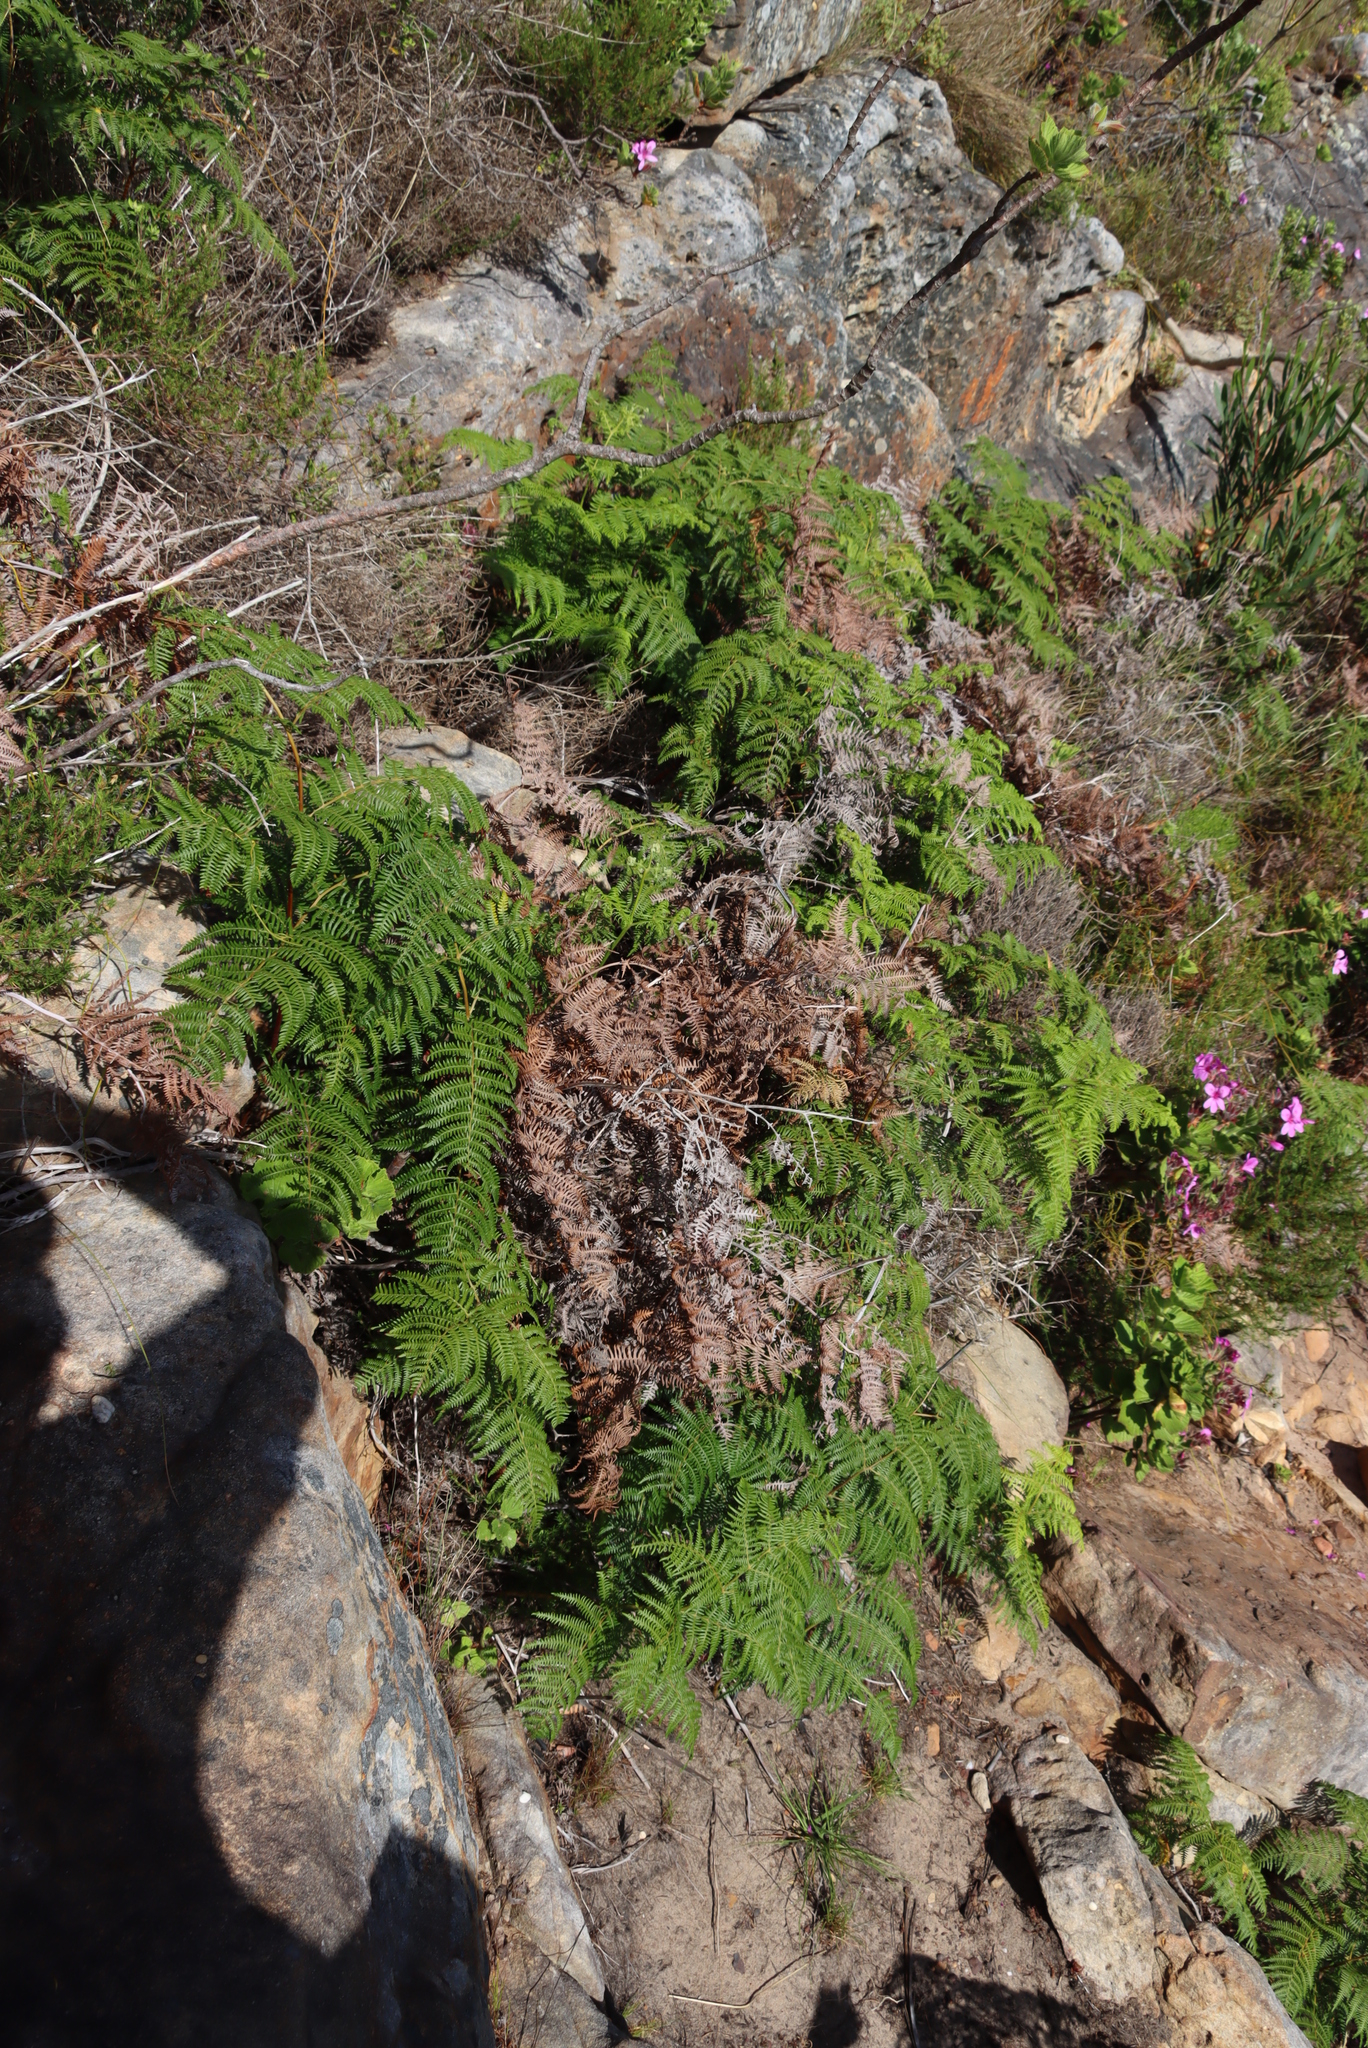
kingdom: Plantae
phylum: Tracheophyta
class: Polypodiopsida
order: Polypodiales
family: Dennstaedtiaceae
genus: Pteridium
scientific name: Pteridium aquilinum
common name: Bracken
